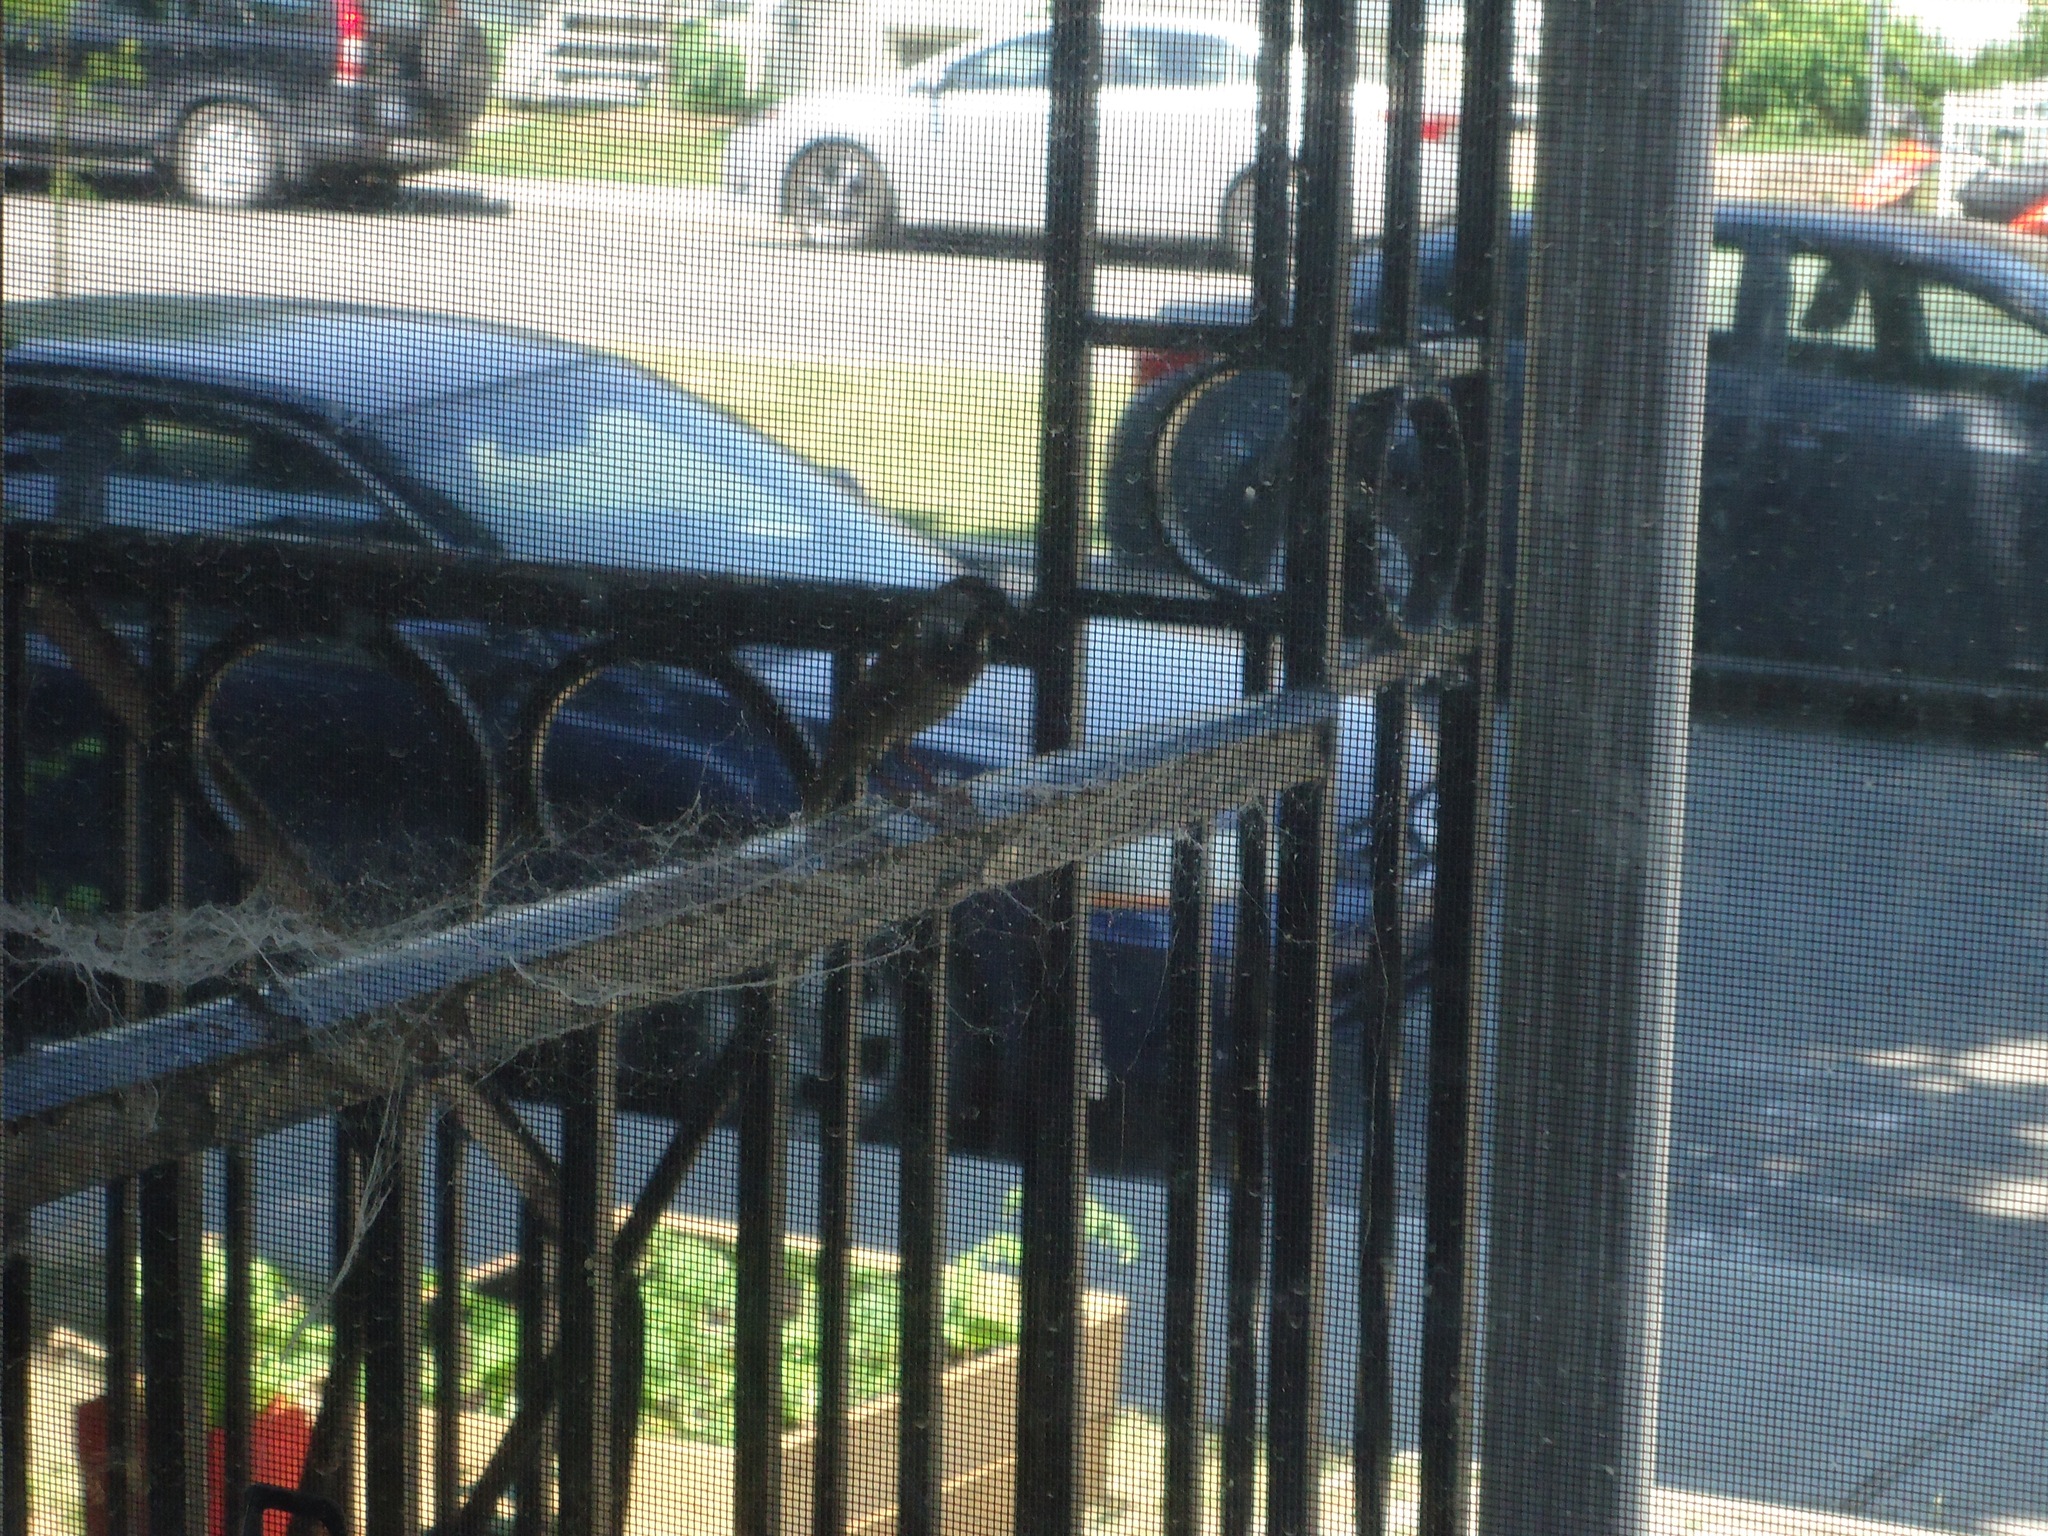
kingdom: Animalia
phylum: Chordata
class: Aves
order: Passeriformes
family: Passeridae
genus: Passer
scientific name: Passer domesticus
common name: House sparrow
